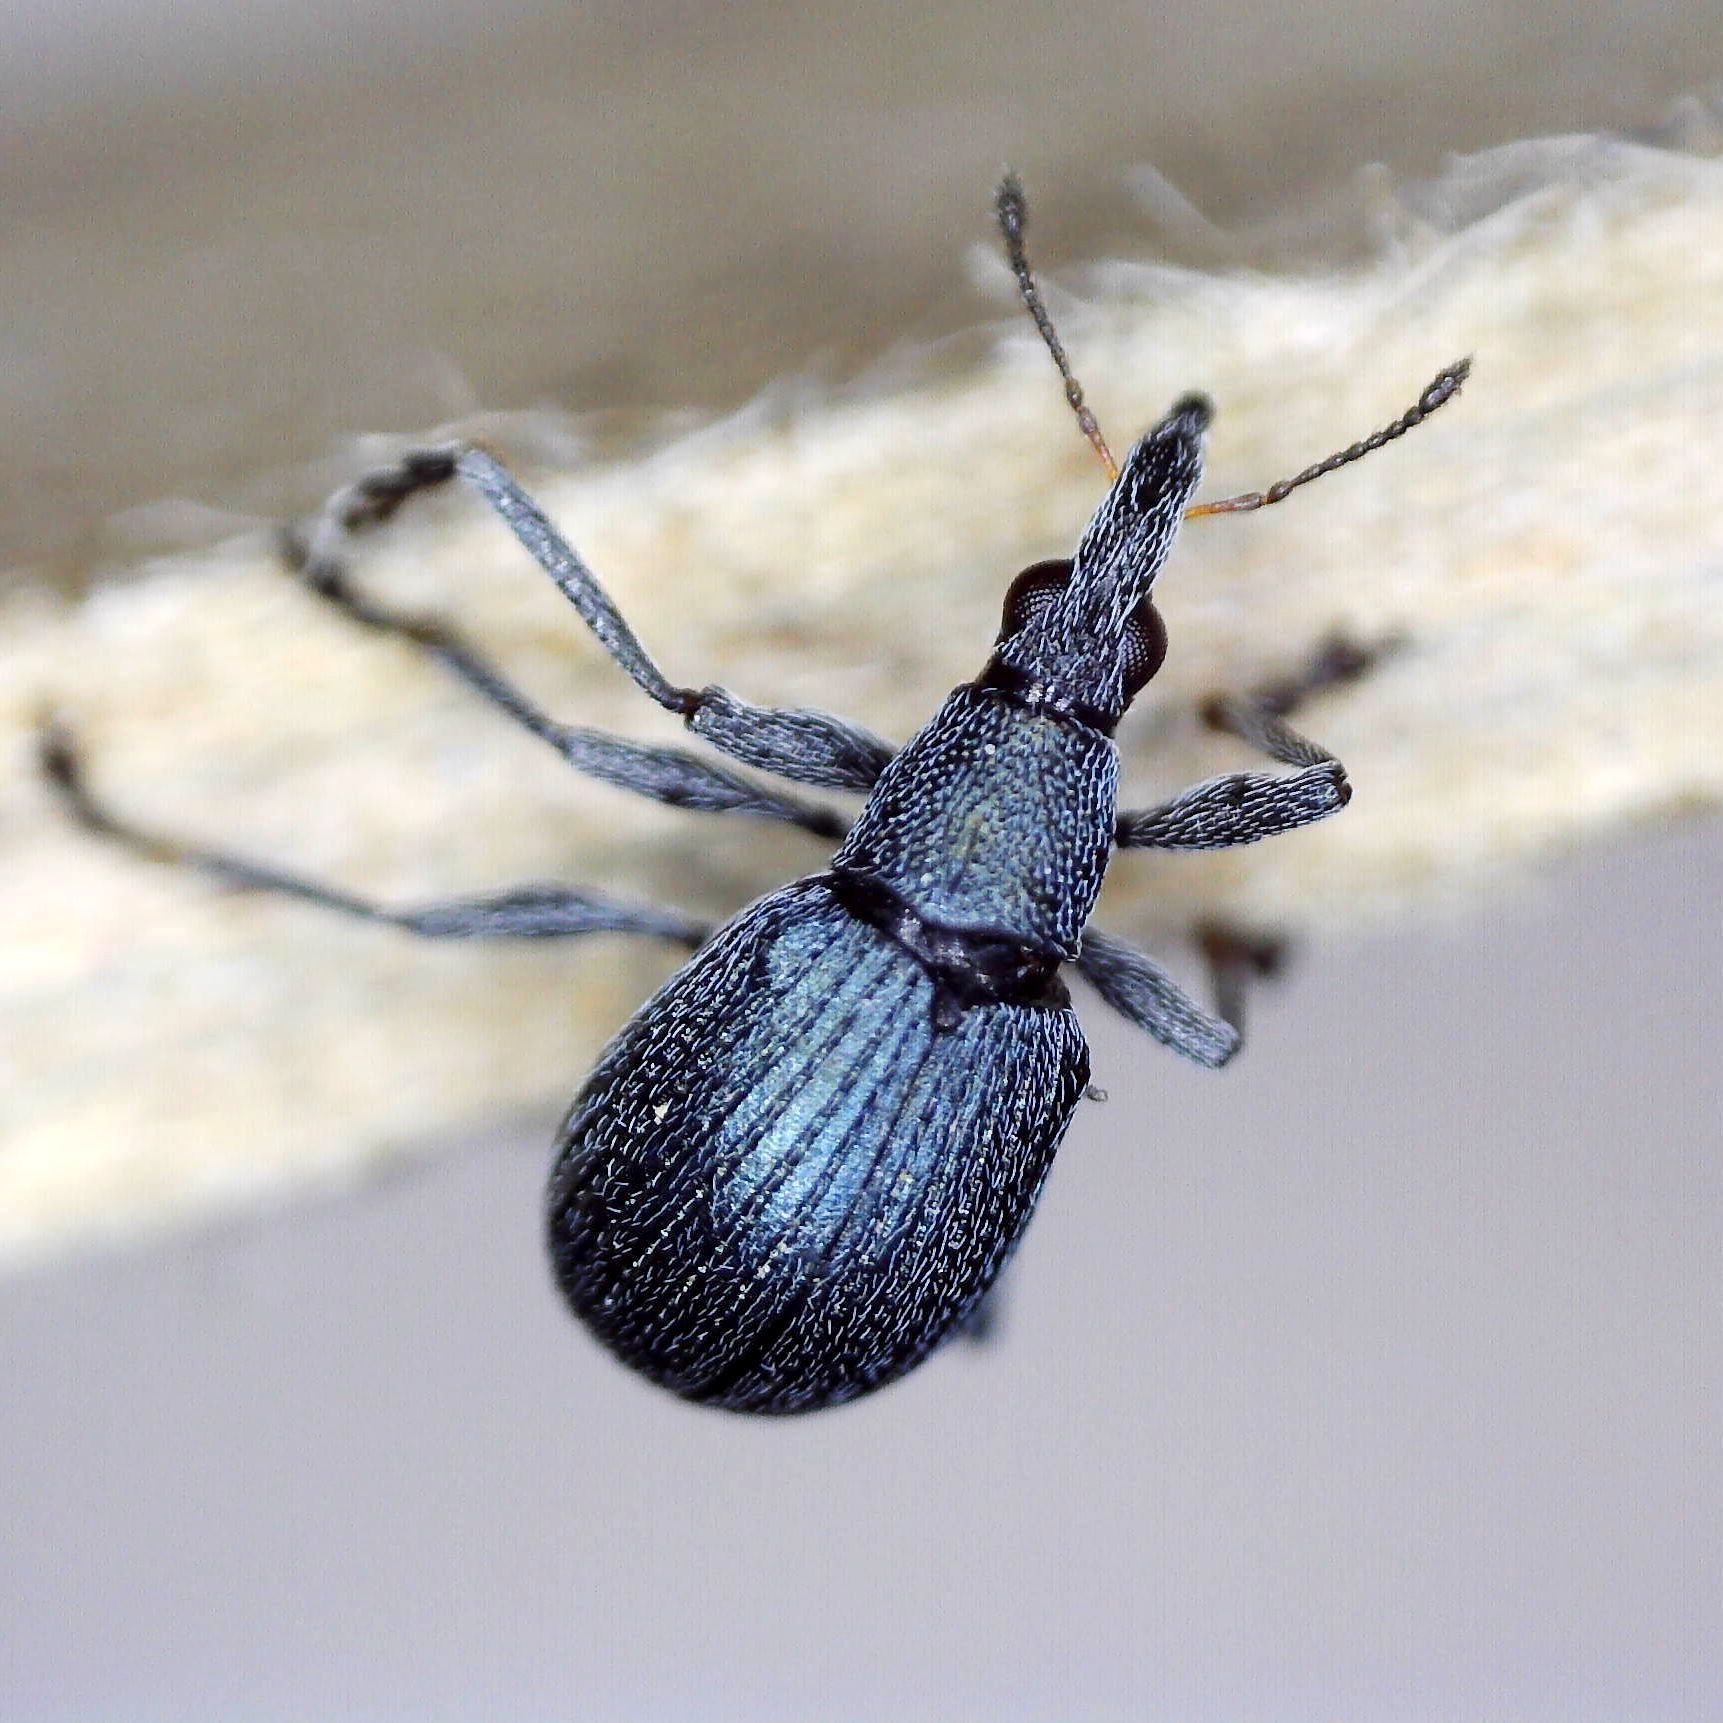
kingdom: Animalia
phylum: Arthropoda
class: Insecta
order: Coleoptera
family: Apionidae
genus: Oxystoma
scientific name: Oxystoma pomonae
